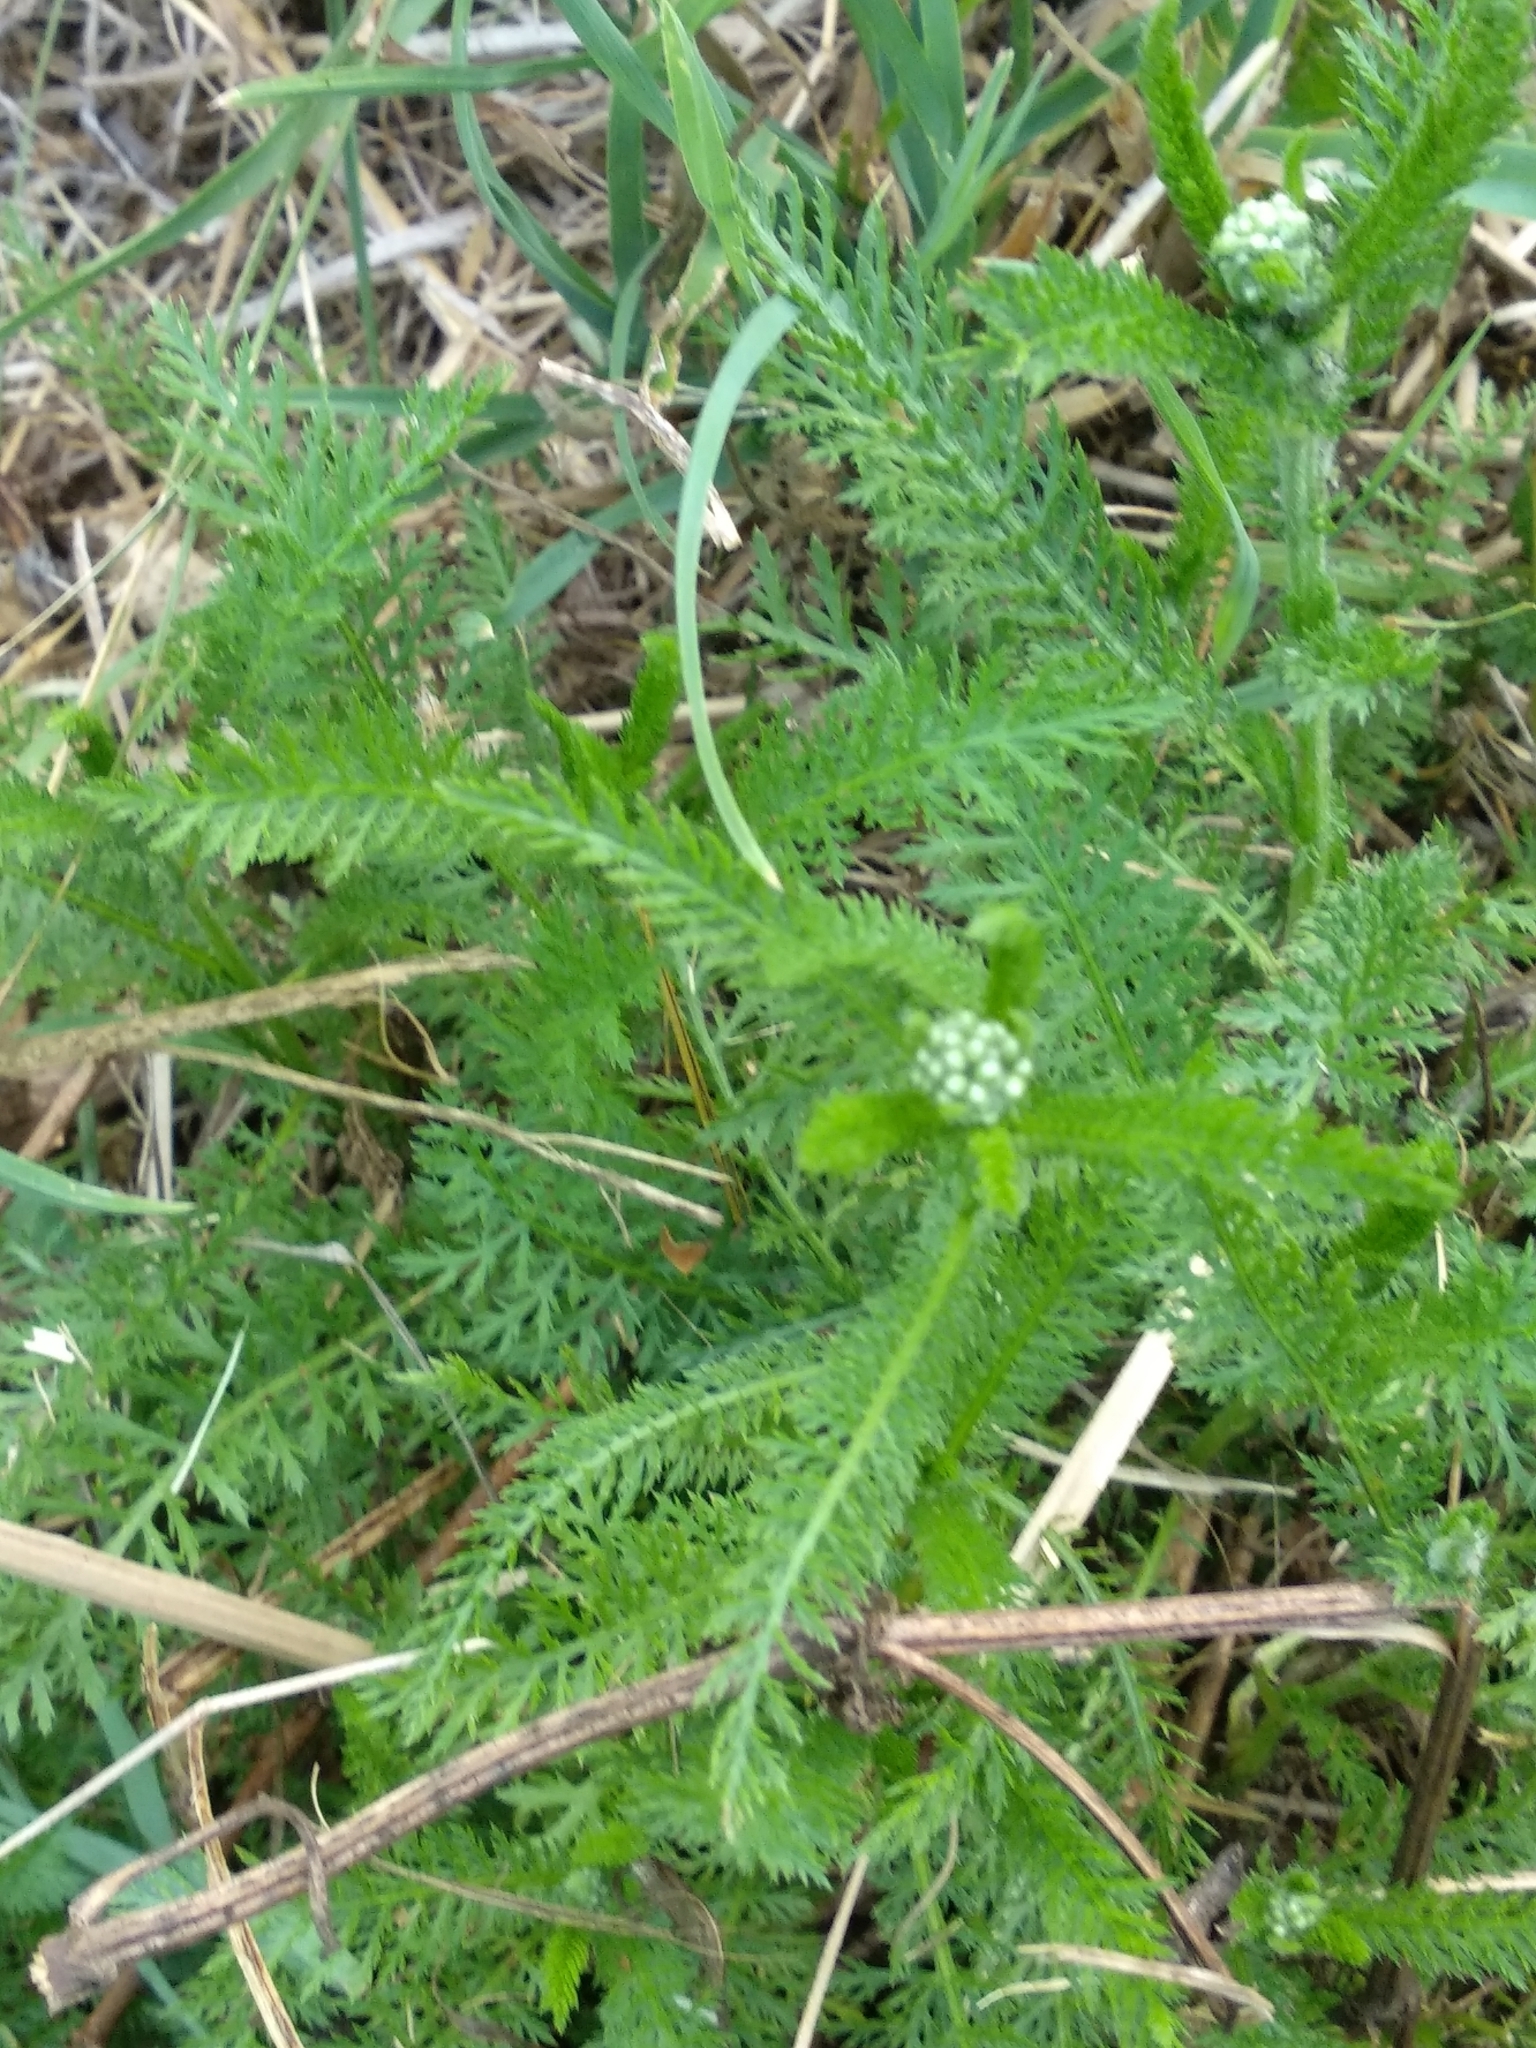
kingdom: Plantae
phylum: Tracheophyta
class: Magnoliopsida
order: Asterales
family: Asteraceae
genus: Achillea
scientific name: Achillea millefolium
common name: Yarrow
